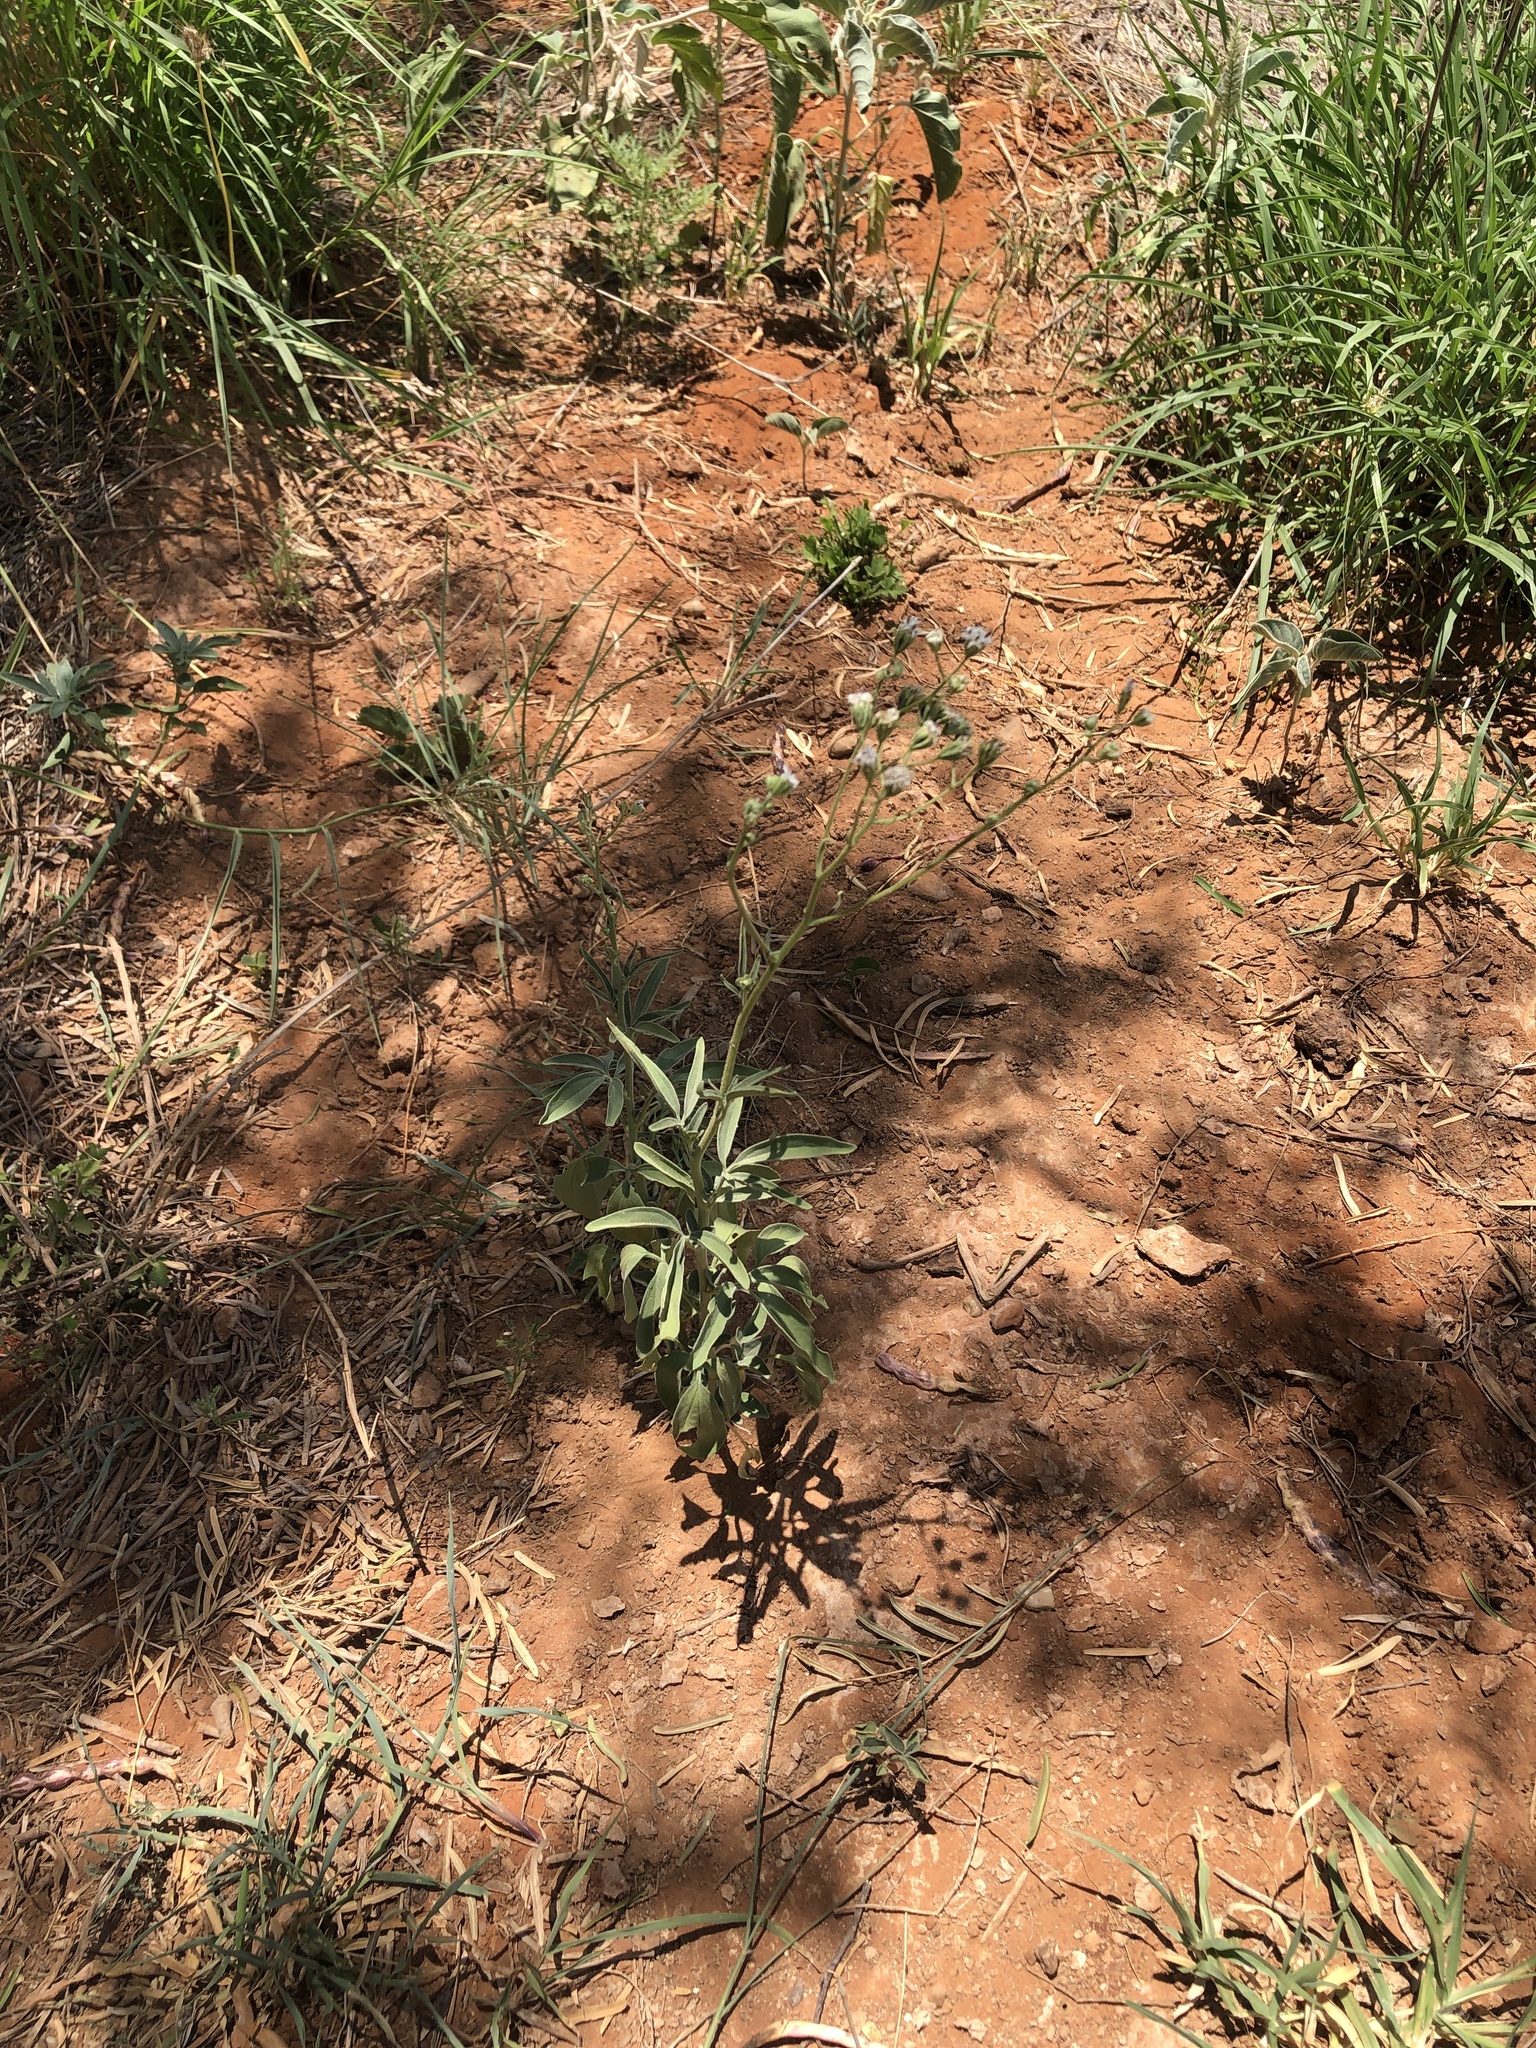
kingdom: Plantae
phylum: Tracheophyta
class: Magnoliopsida
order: Asterales
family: Asteraceae
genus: Florestina
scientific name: Florestina tripteris
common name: Sticky florestina
